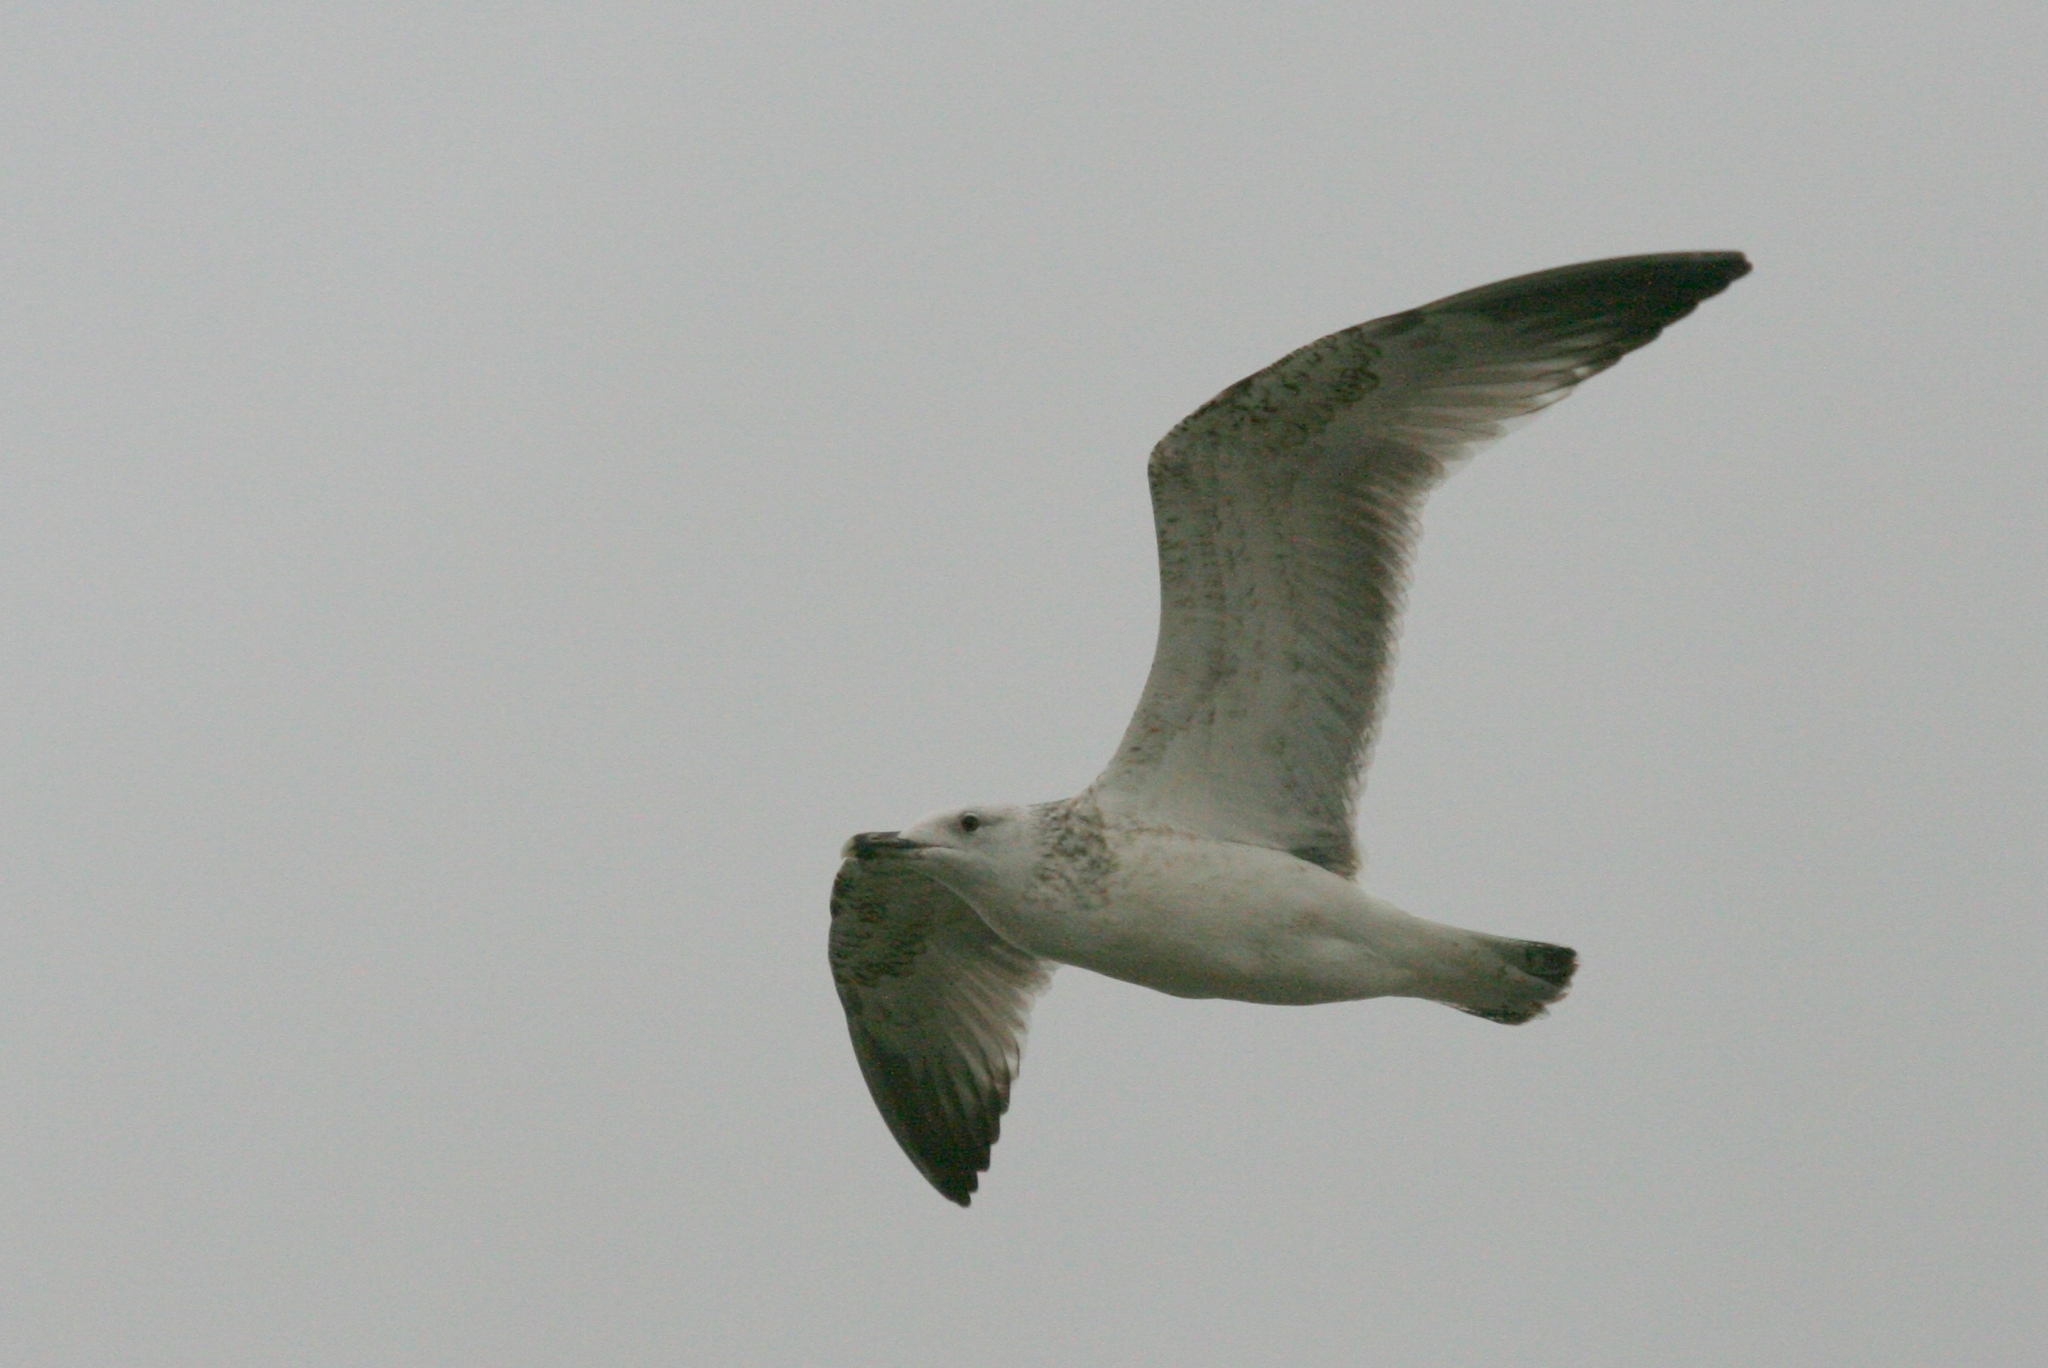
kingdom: Animalia
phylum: Chordata
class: Aves
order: Charadriiformes
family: Laridae
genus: Larus
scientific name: Larus cachinnans
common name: Caspian gull
